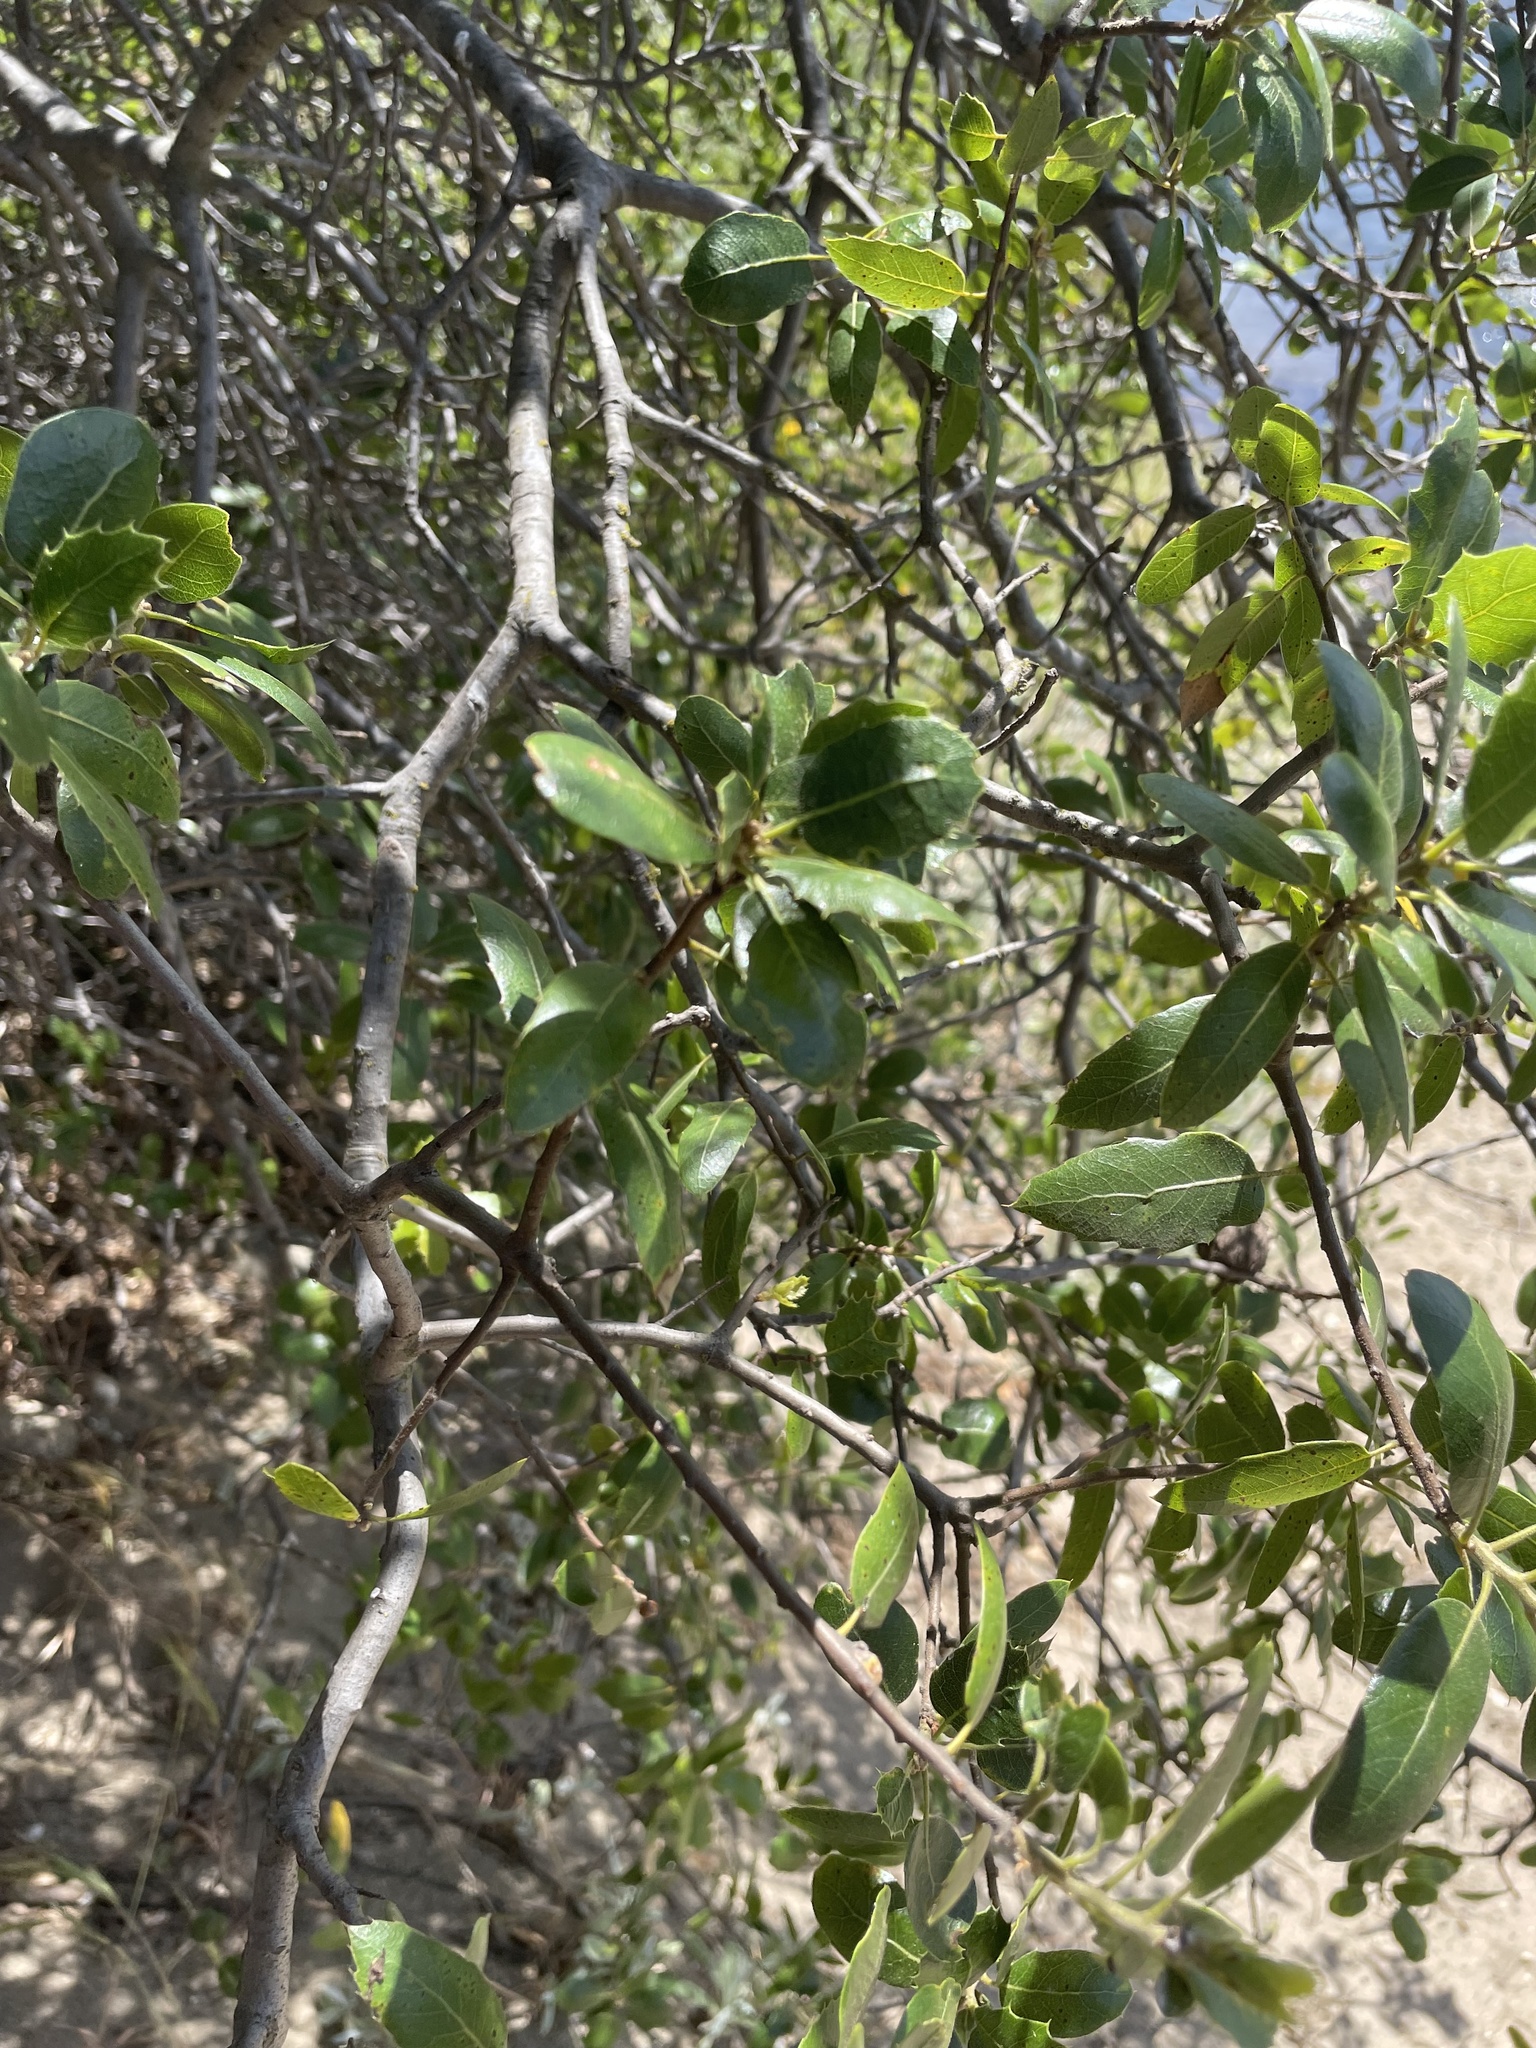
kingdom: Plantae
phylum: Tracheophyta
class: Magnoliopsida
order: Fagales
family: Fagaceae
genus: Quercus
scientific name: Quercus wislizeni
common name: Interior live oak
